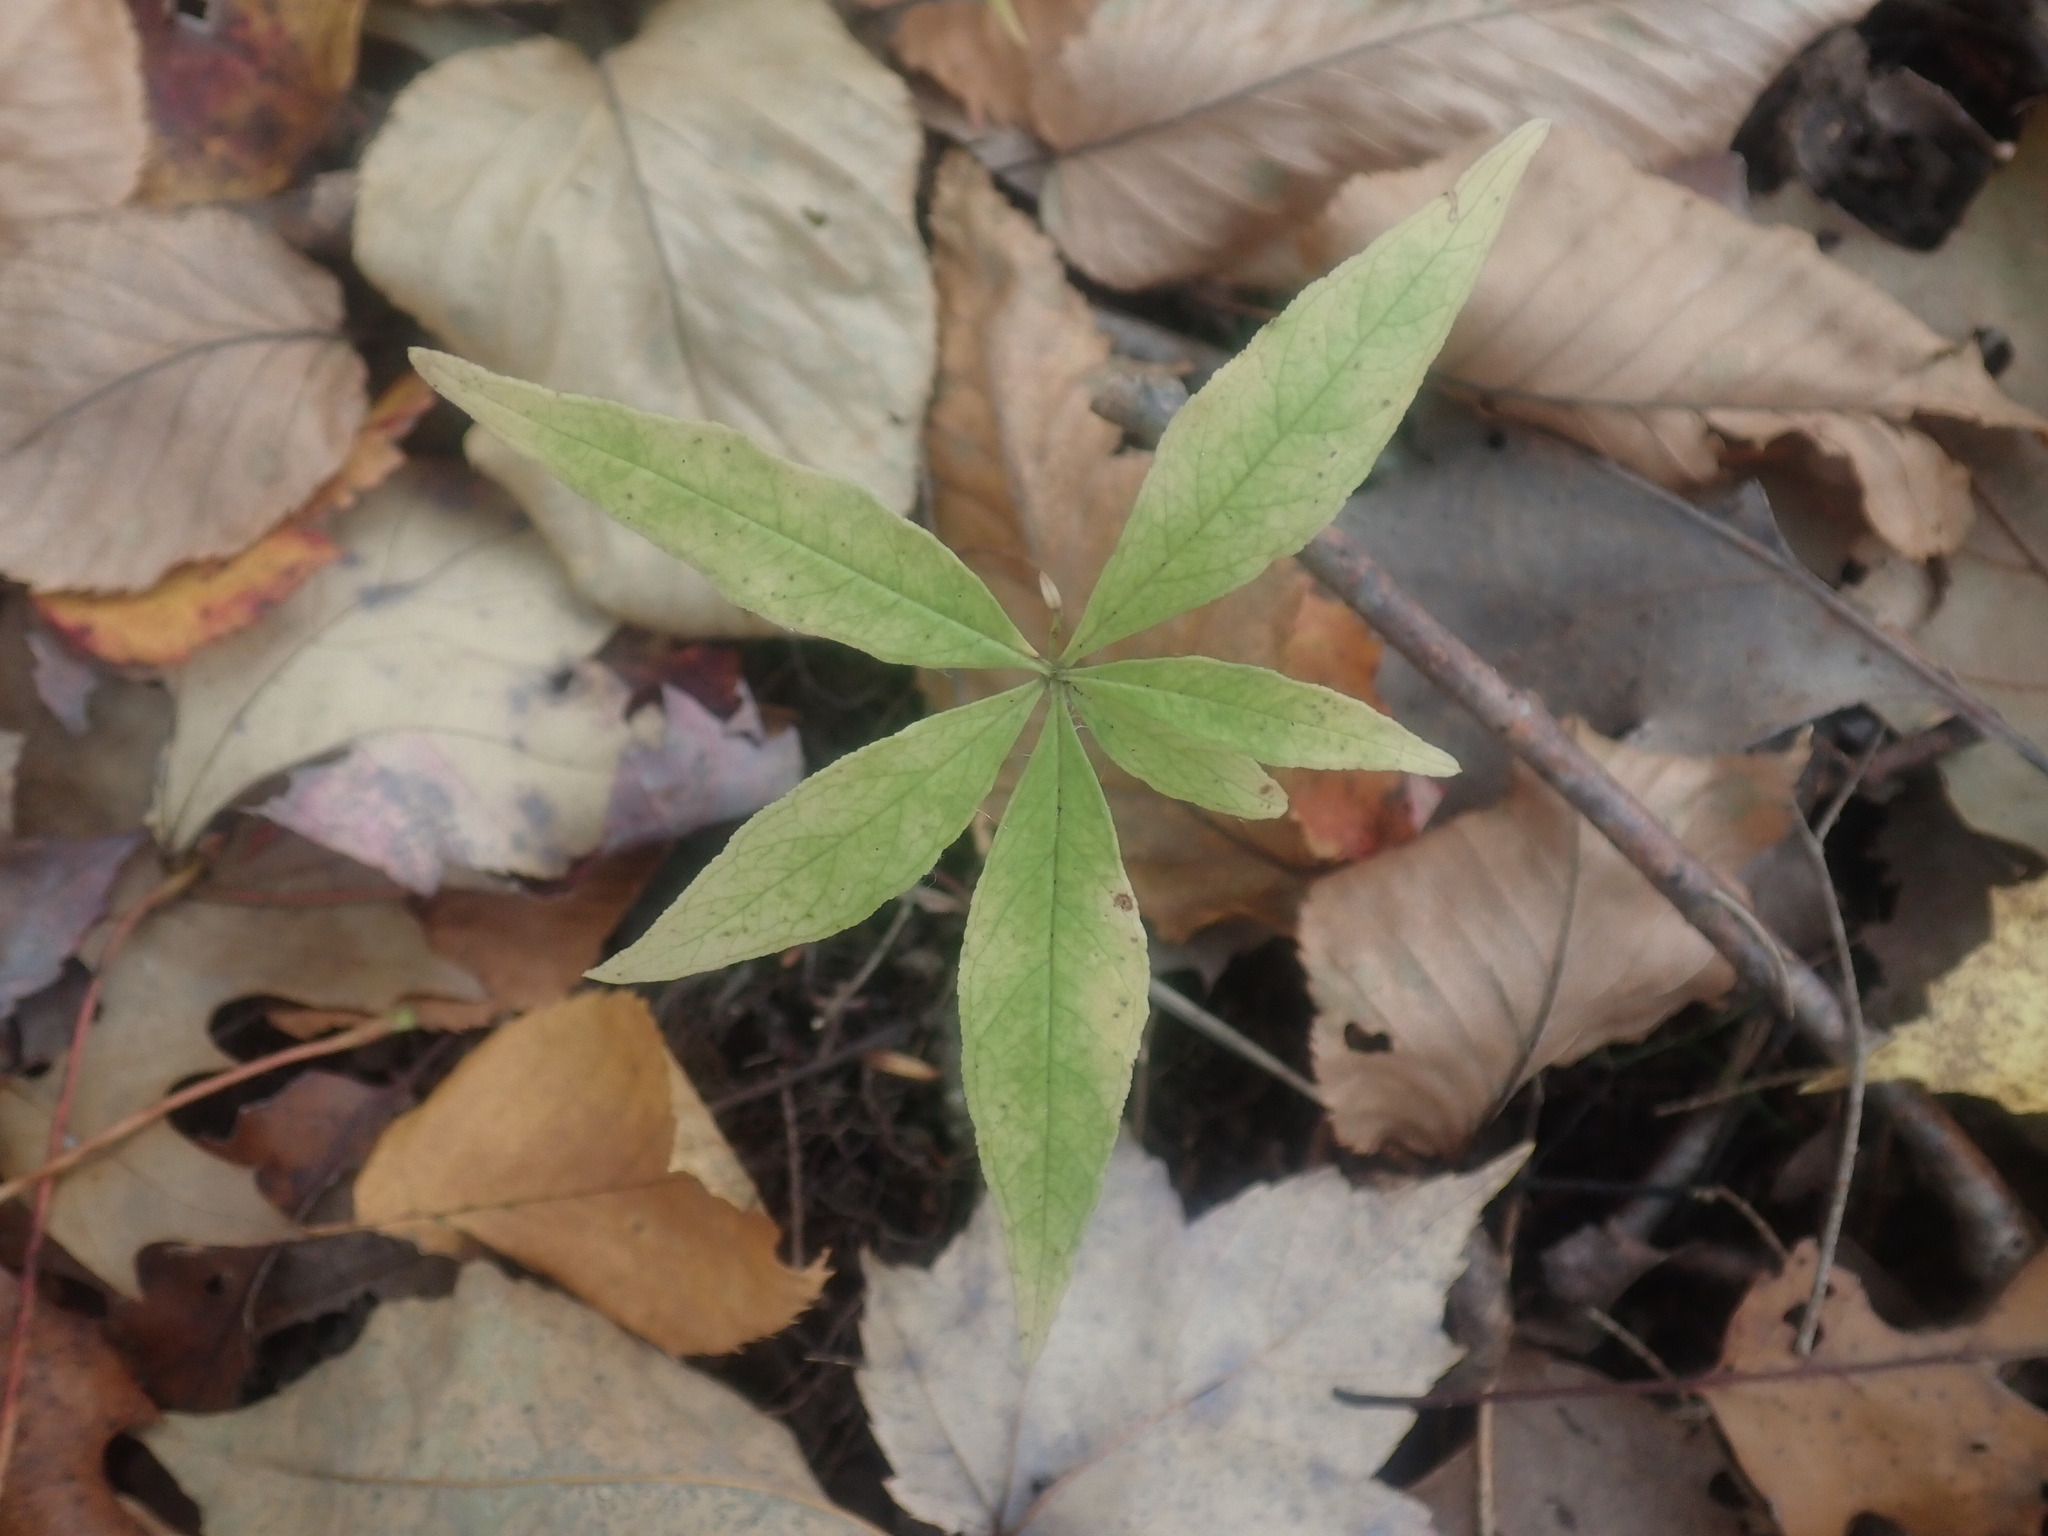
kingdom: Plantae
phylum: Tracheophyta
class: Magnoliopsida
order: Ericales
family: Primulaceae
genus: Lysimachia
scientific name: Lysimachia borealis
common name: American starflower
